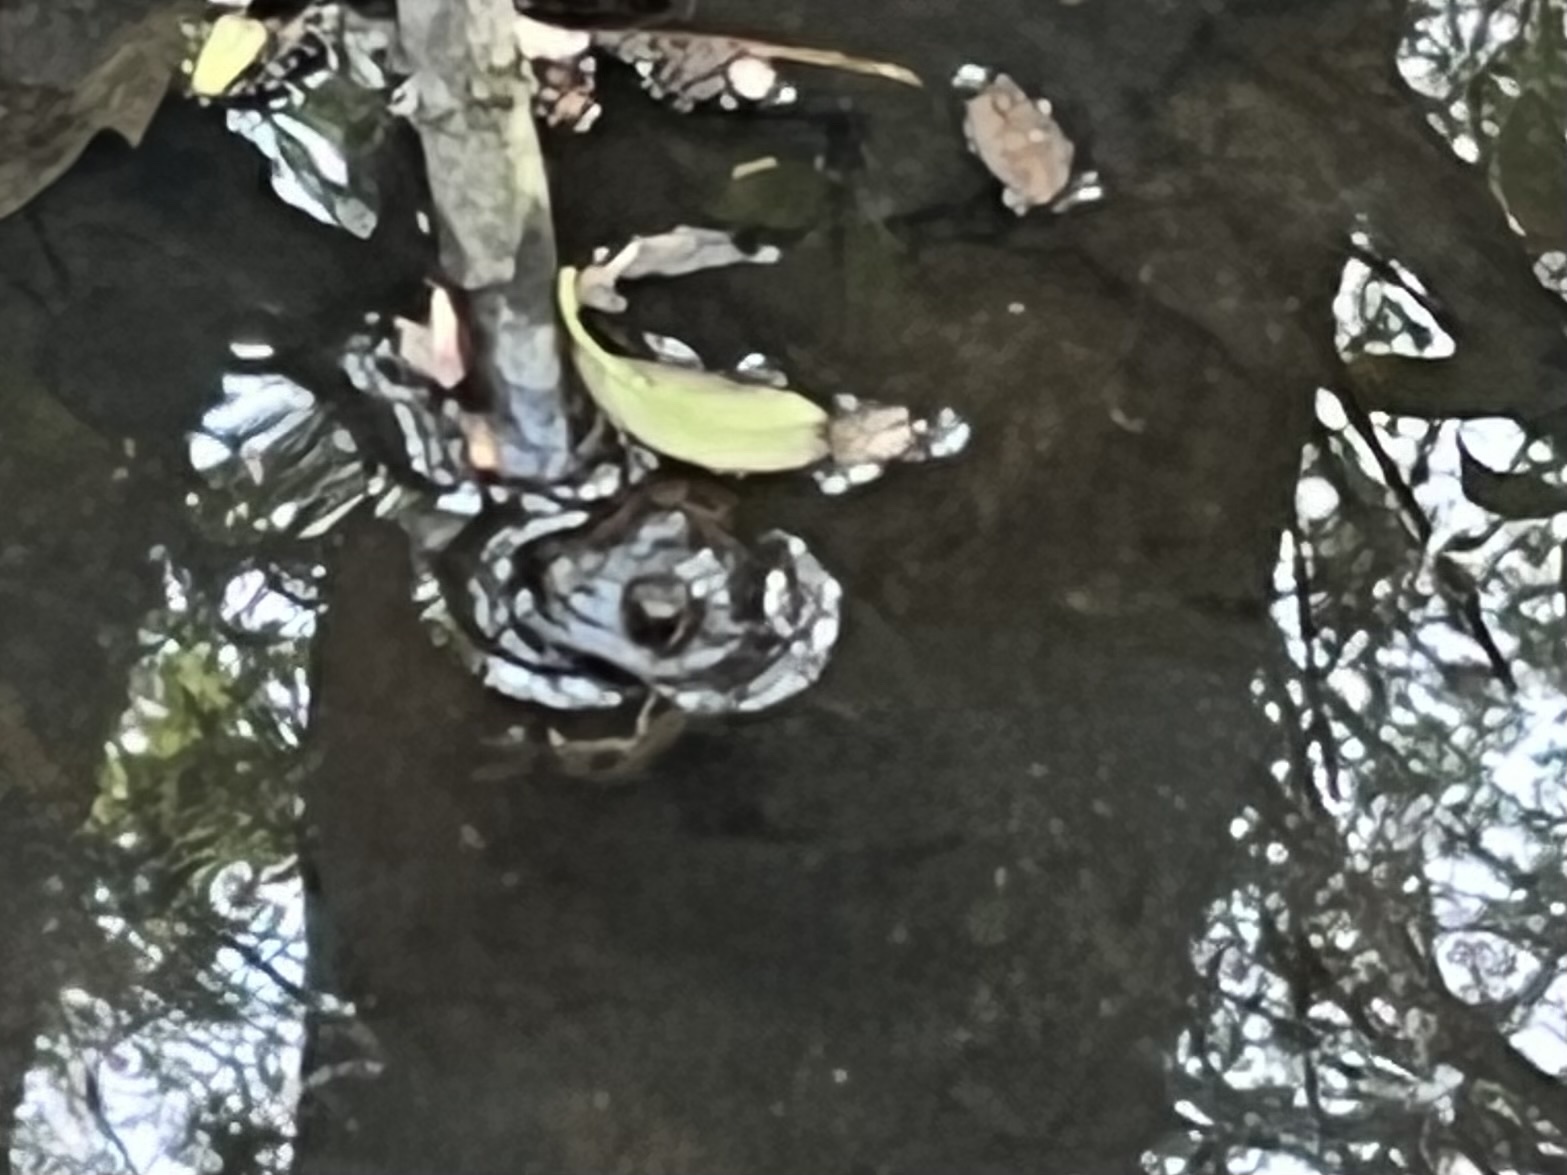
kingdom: Animalia
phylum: Chordata
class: Amphibia
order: Anura
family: Ranidae
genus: Lithobates
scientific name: Lithobates
